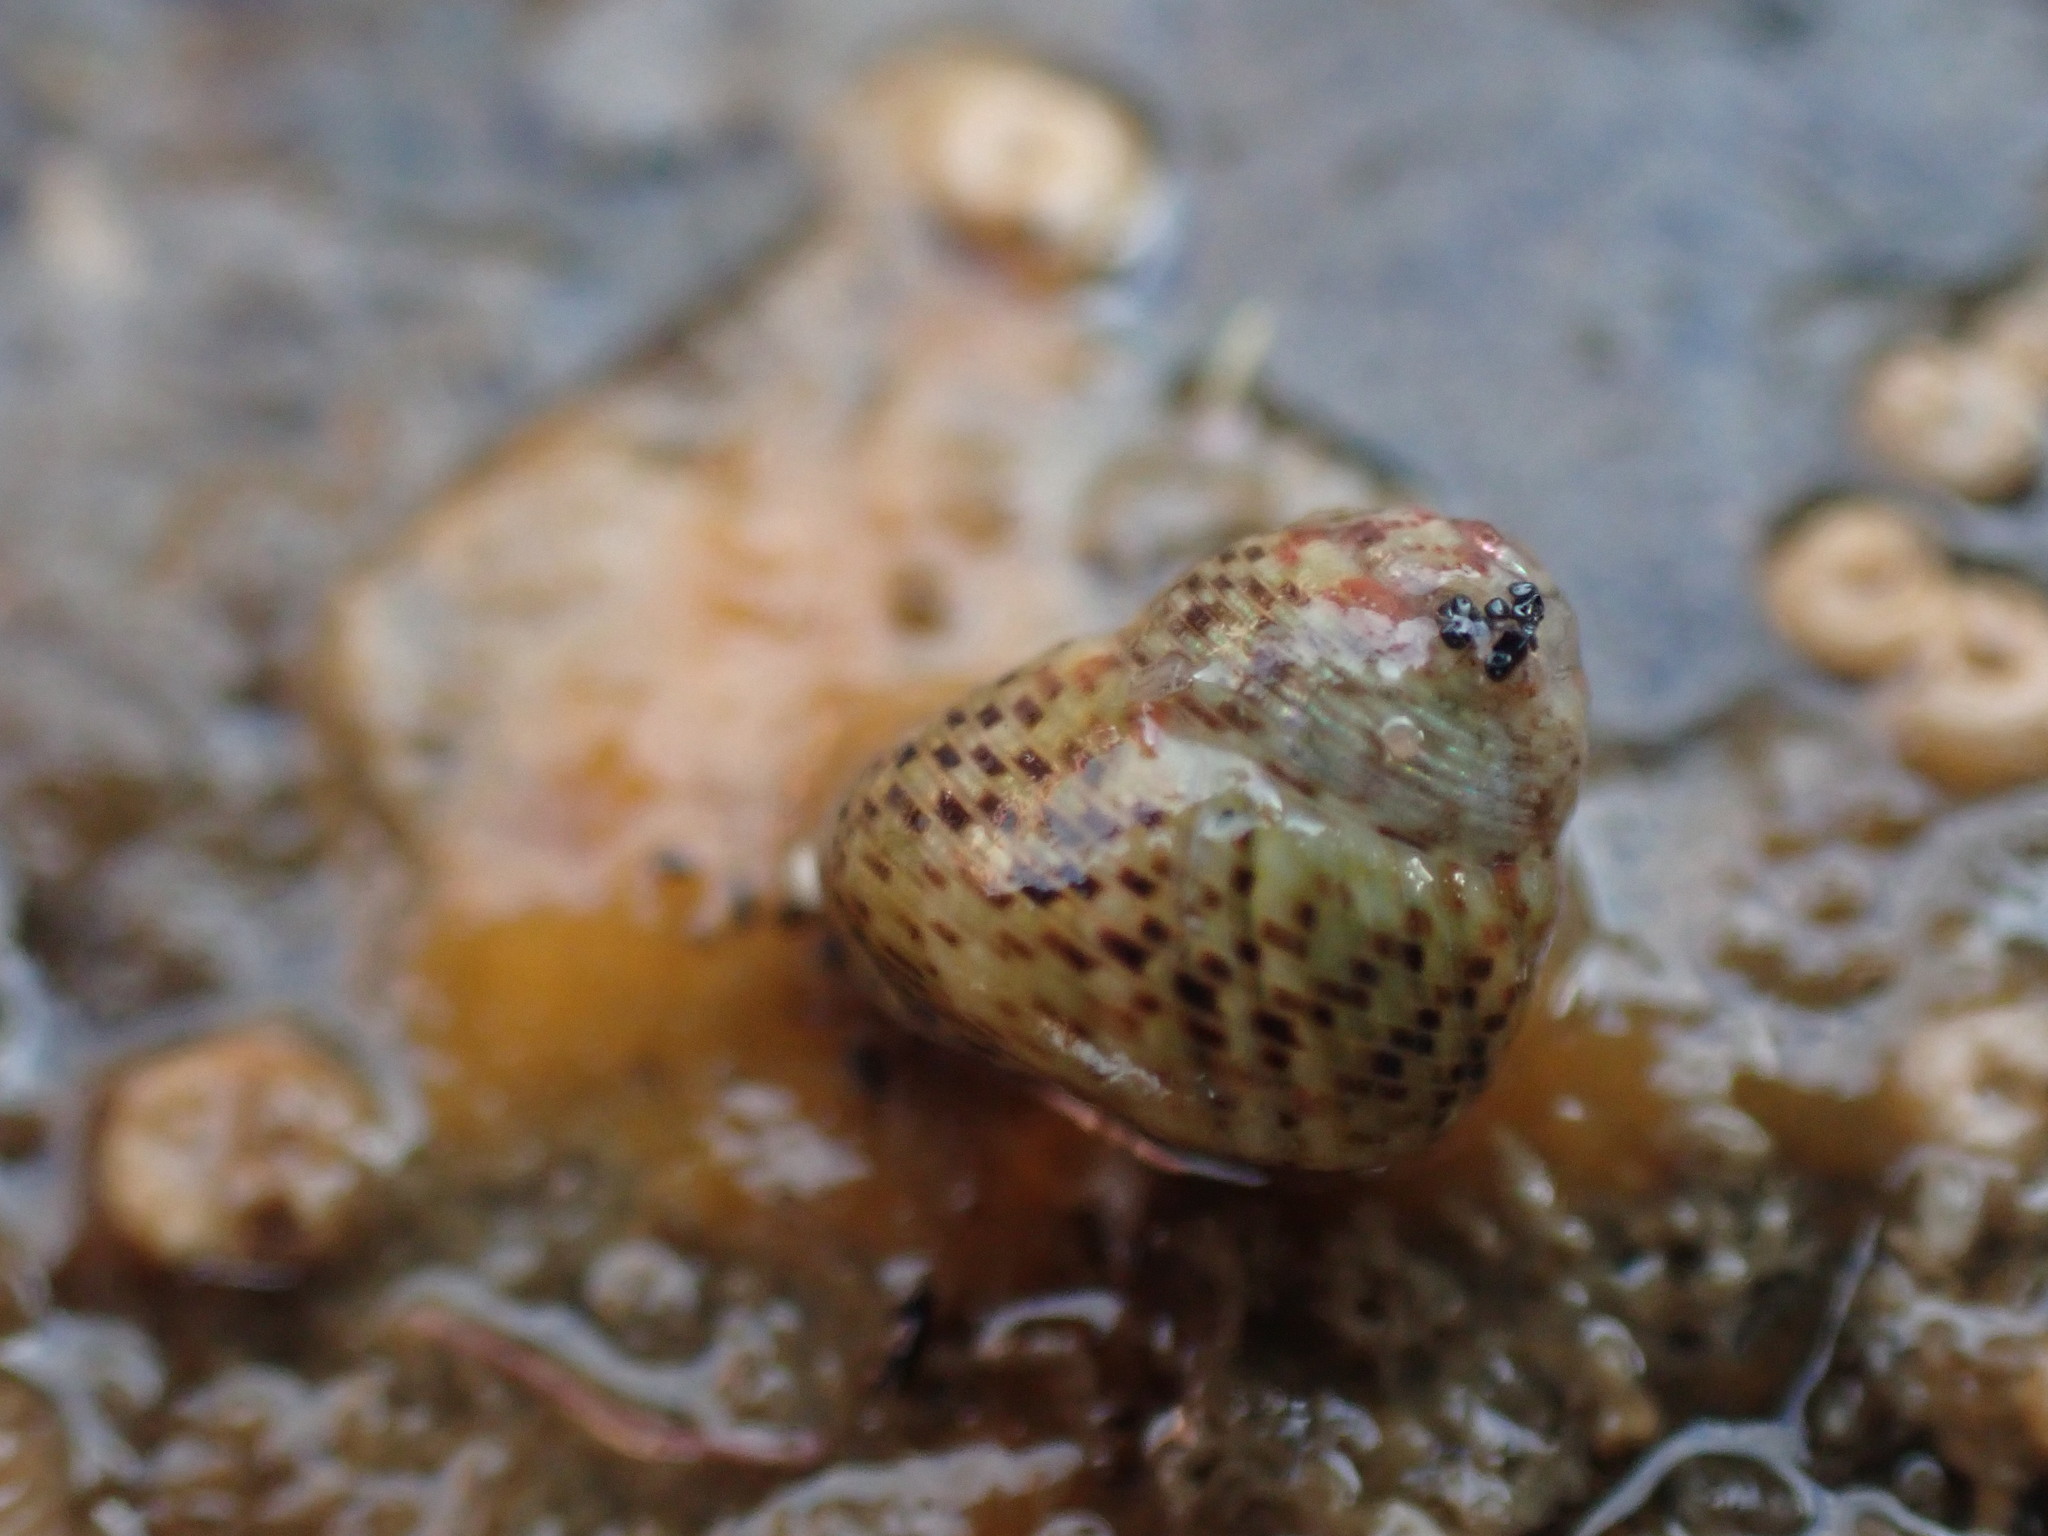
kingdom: Animalia
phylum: Mollusca
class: Gastropoda
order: Trochida
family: Trochidae
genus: Micrelenchus
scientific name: Micrelenchus tessellatus
